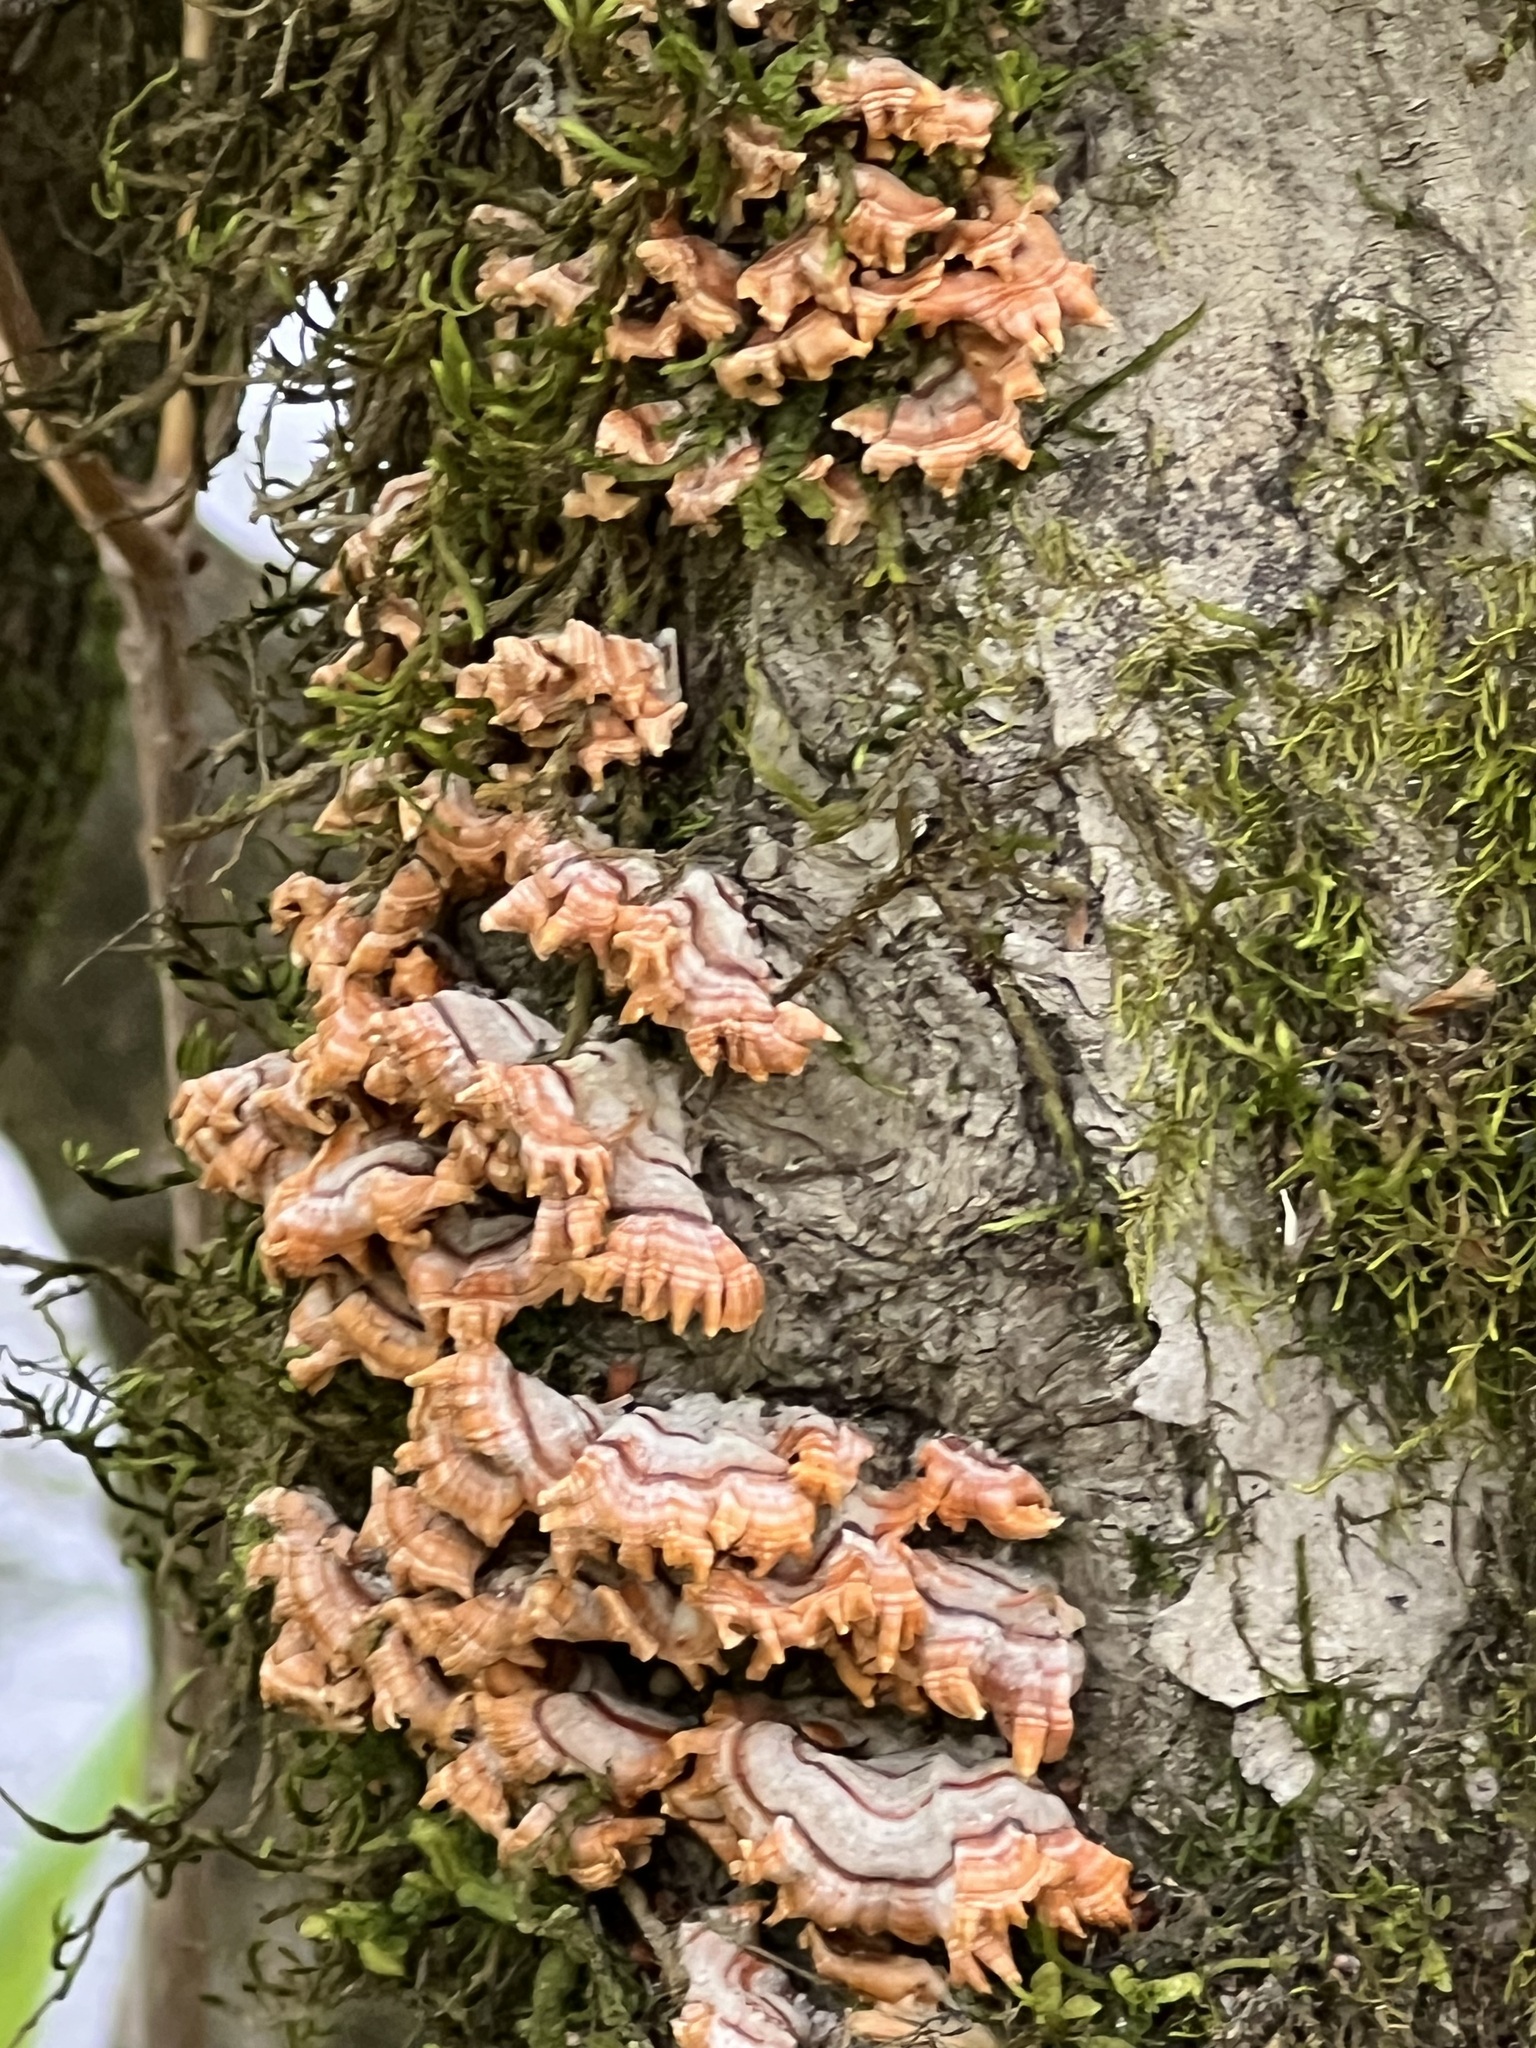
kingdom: Fungi
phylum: Basidiomycota
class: Agaricomycetes
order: Russulales
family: Stereaceae
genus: Stereum
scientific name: Stereum complicatum
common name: Crowded parchment
